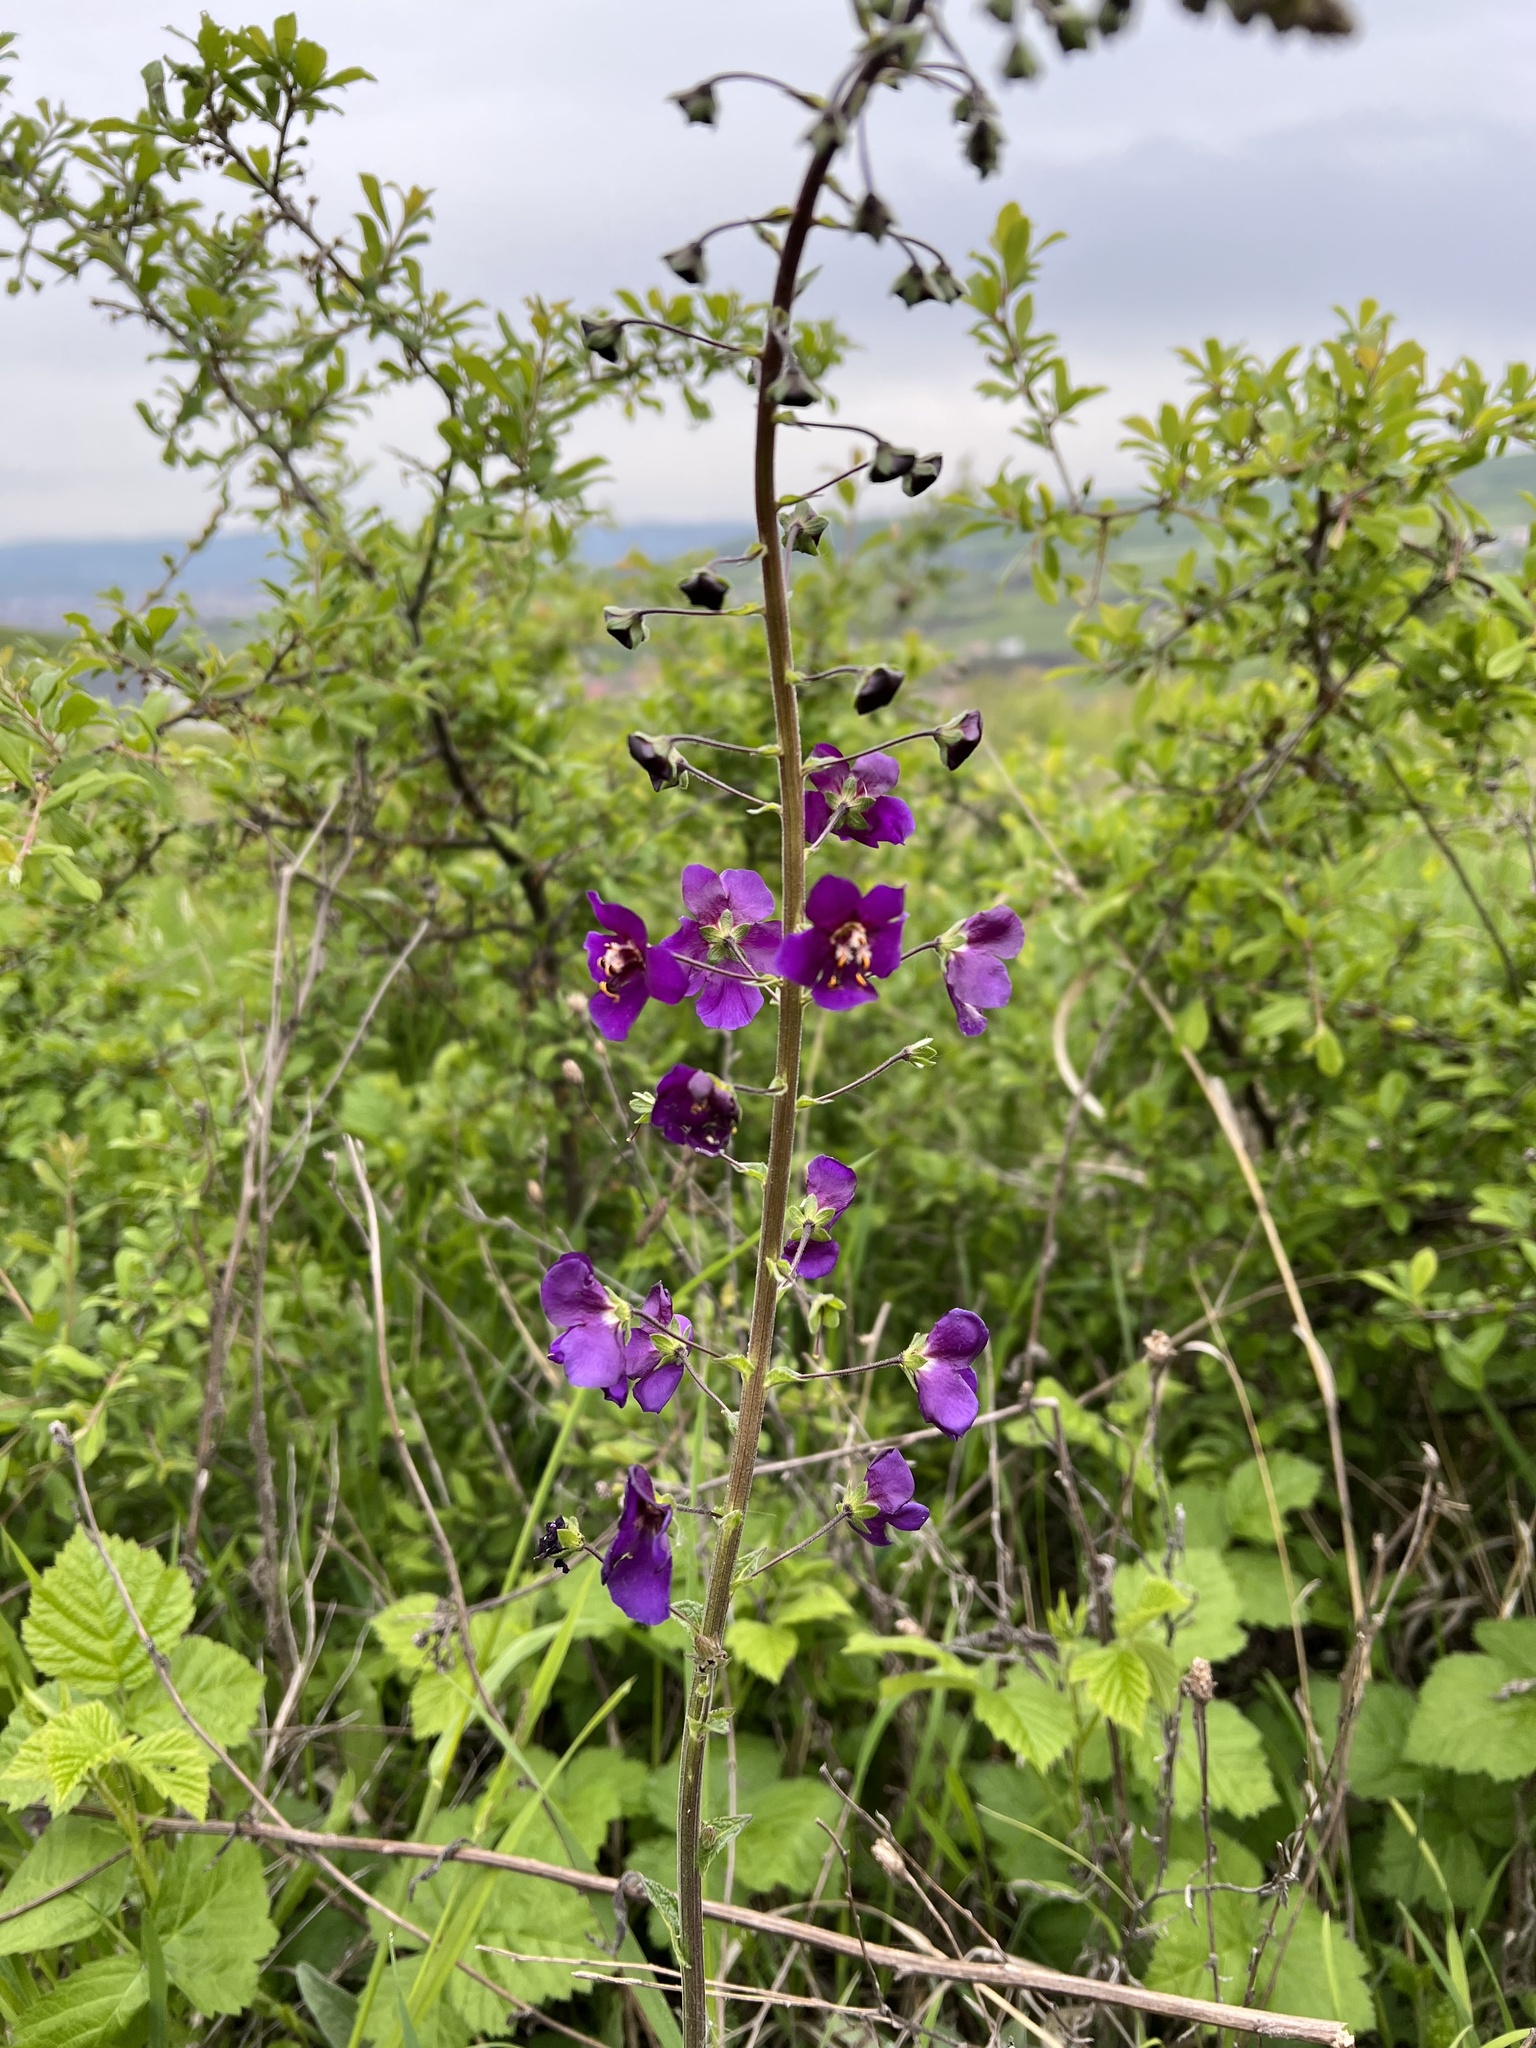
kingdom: Plantae
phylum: Tracheophyta
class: Magnoliopsida
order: Lamiales
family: Scrophulariaceae
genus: Verbascum
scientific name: Verbascum phoeniceum
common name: Purple mullein
